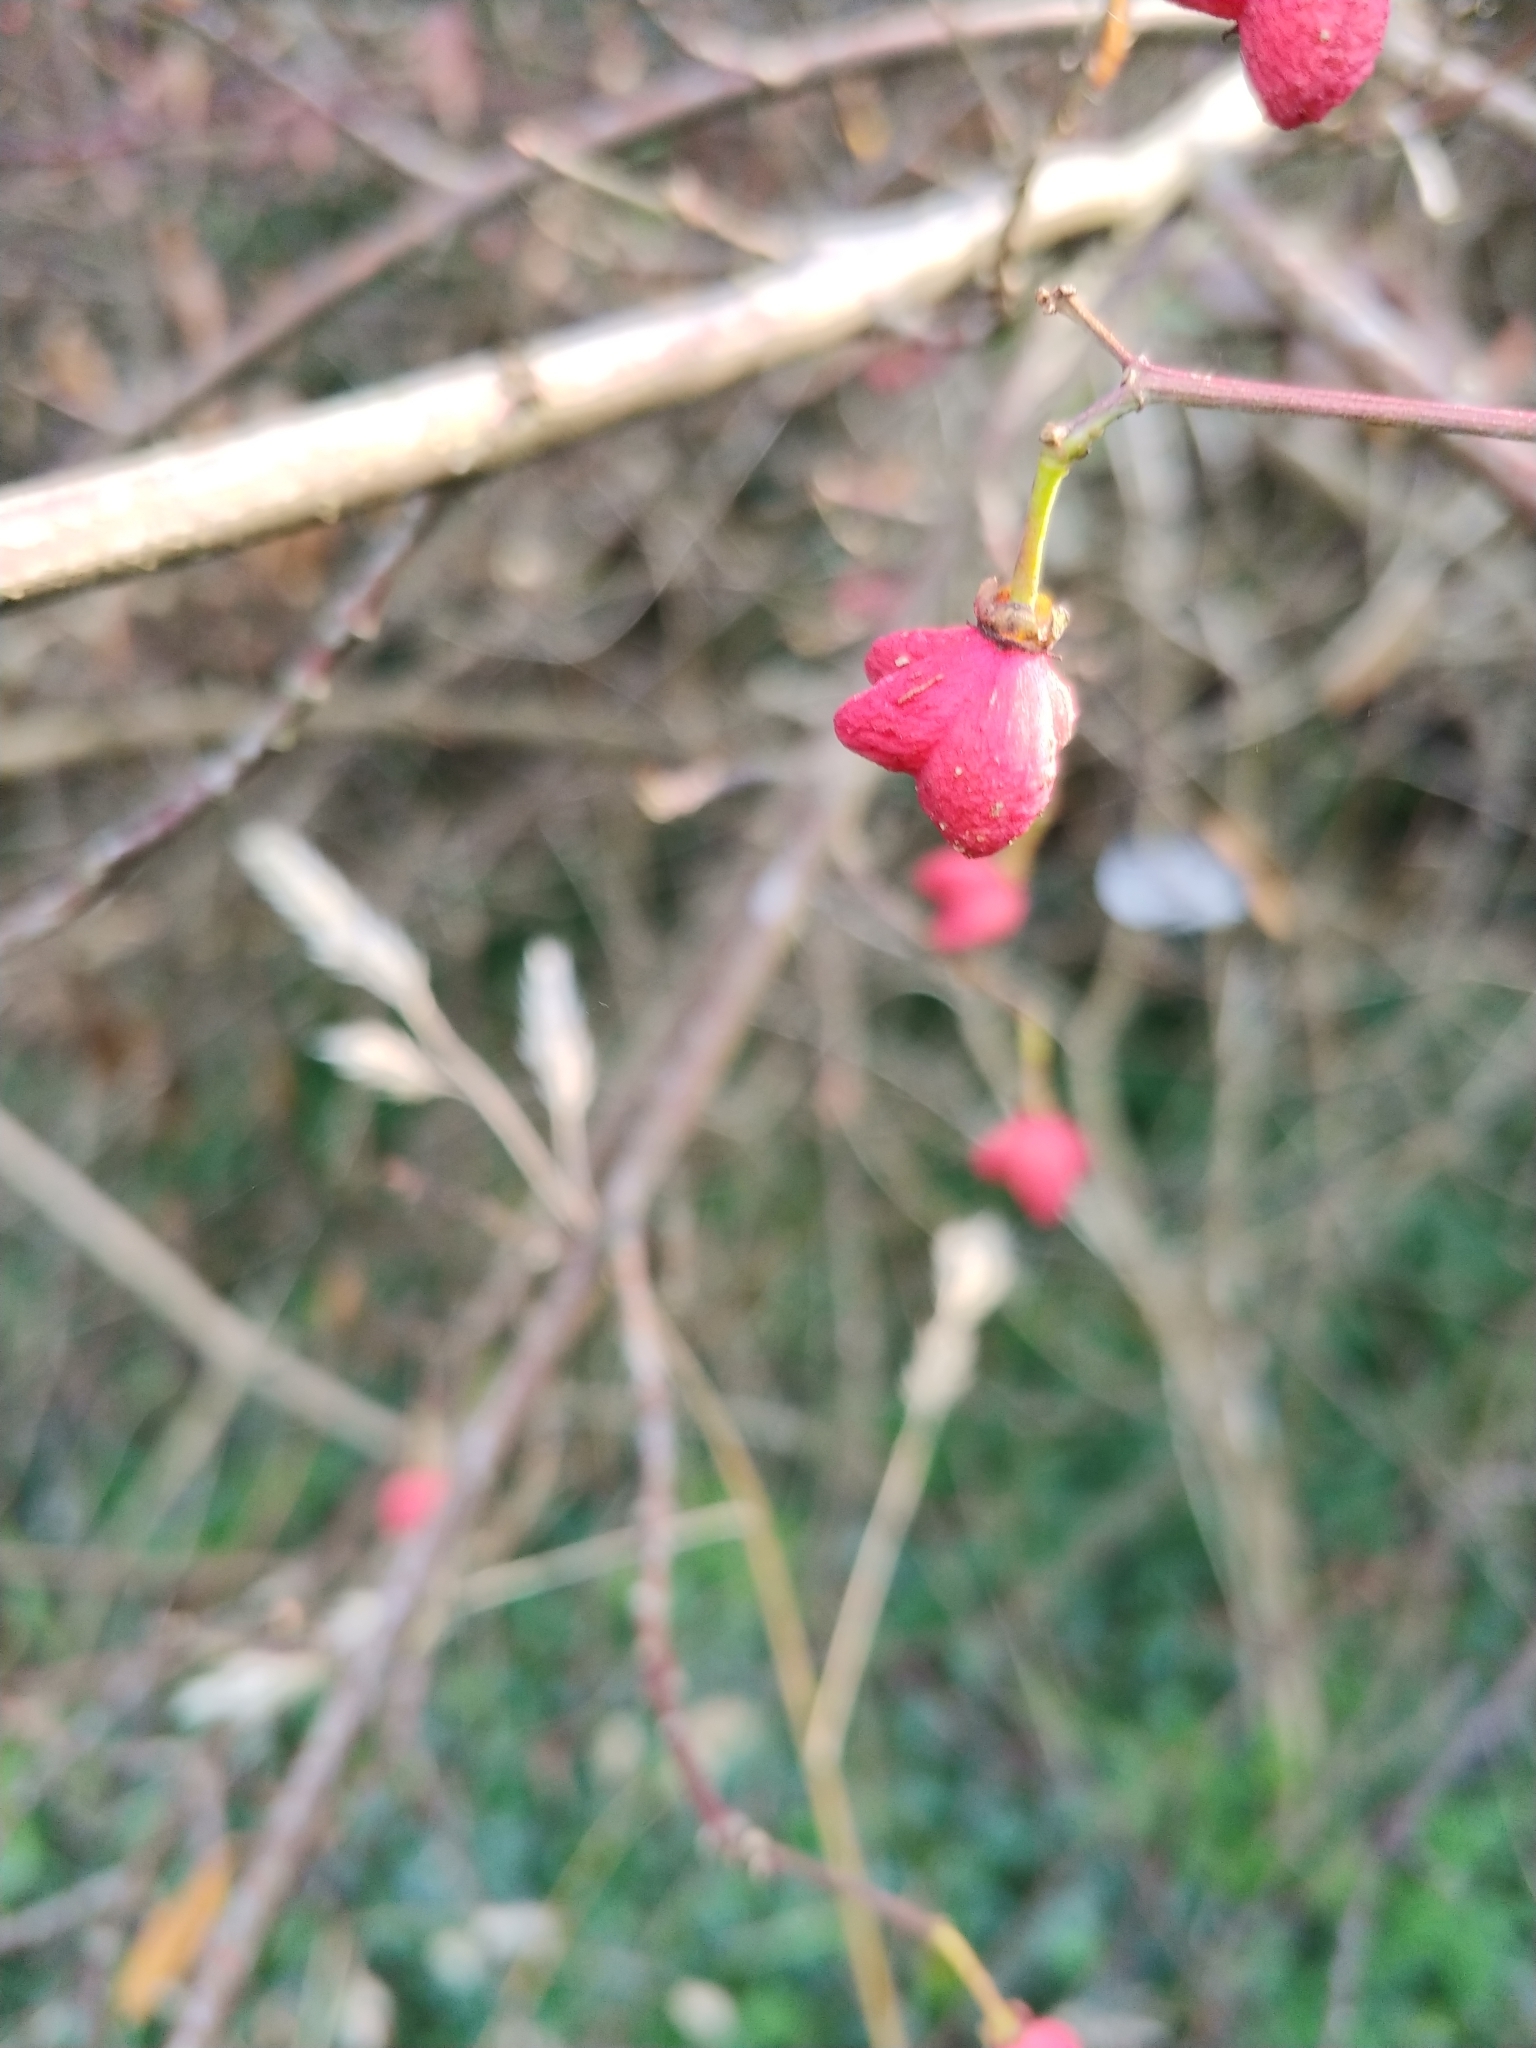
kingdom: Plantae
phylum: Tracheophyta
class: Magnoliopsida
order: Celastrales
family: Celastraceae
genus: Euonymus
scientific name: Euonymus europaeus
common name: Spindle
